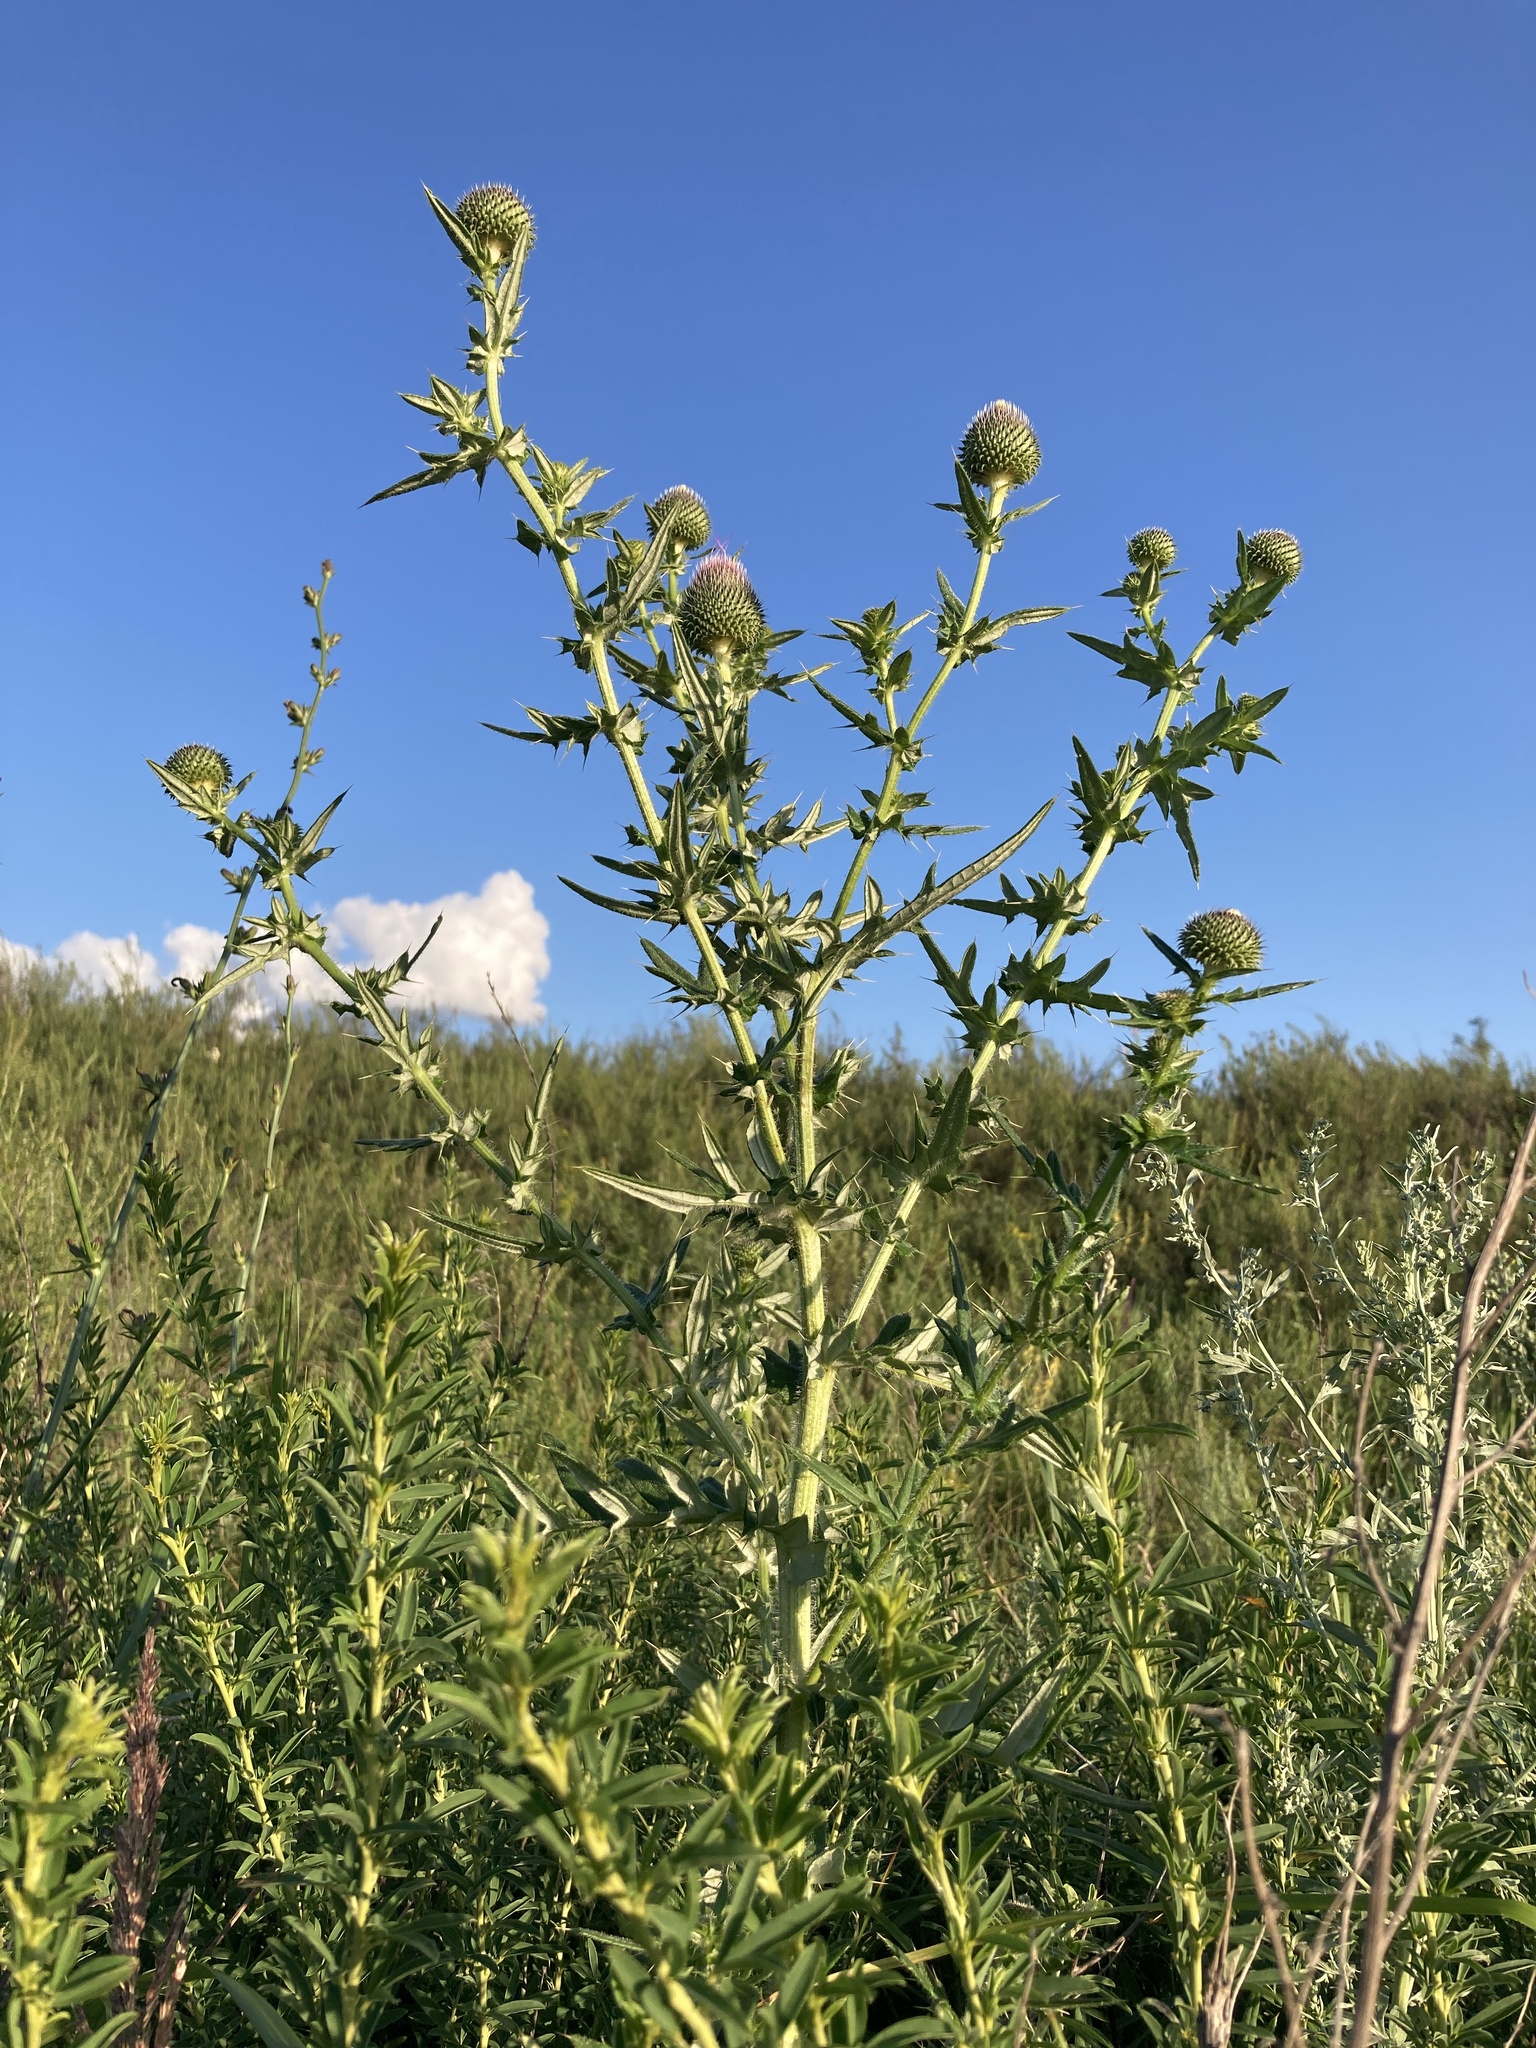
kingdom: Plantae
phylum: Tracheophyta
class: Magnoliopsida
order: Asterales
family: Asteraceae
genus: Cirsium
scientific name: Cirsium serrulatum
